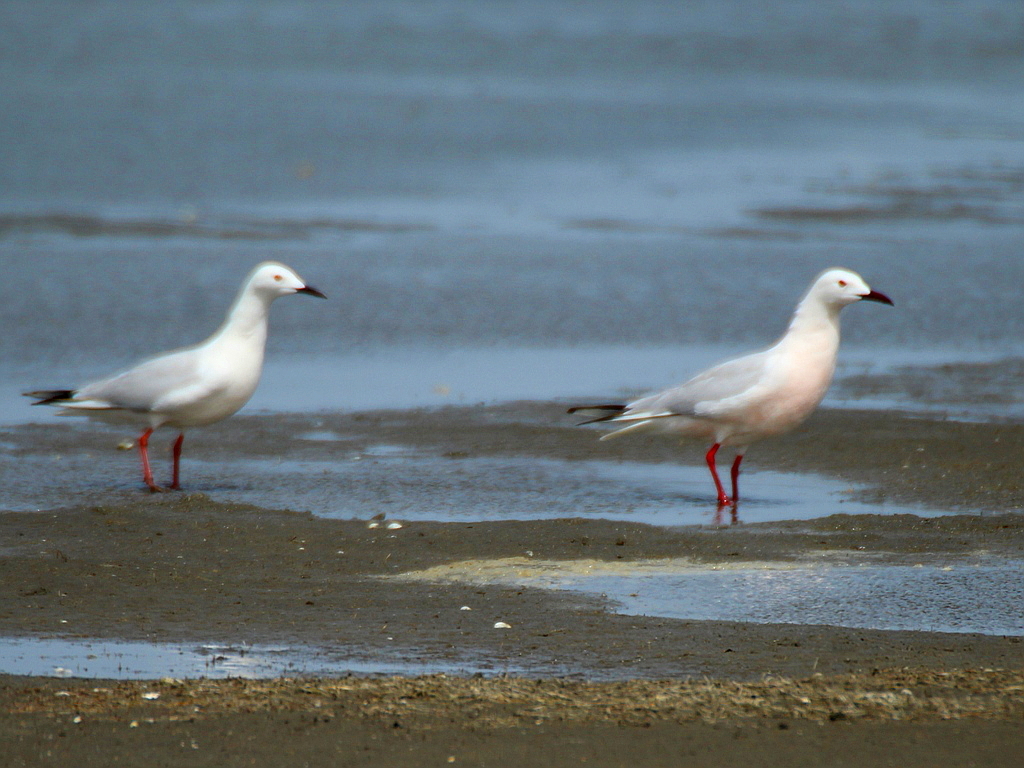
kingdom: Animalia
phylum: Chordata
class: Aves
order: Charadriiformes
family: Laridae
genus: Chroicocephalus
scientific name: Chroicocephalus genei
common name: Slender-billed gull
